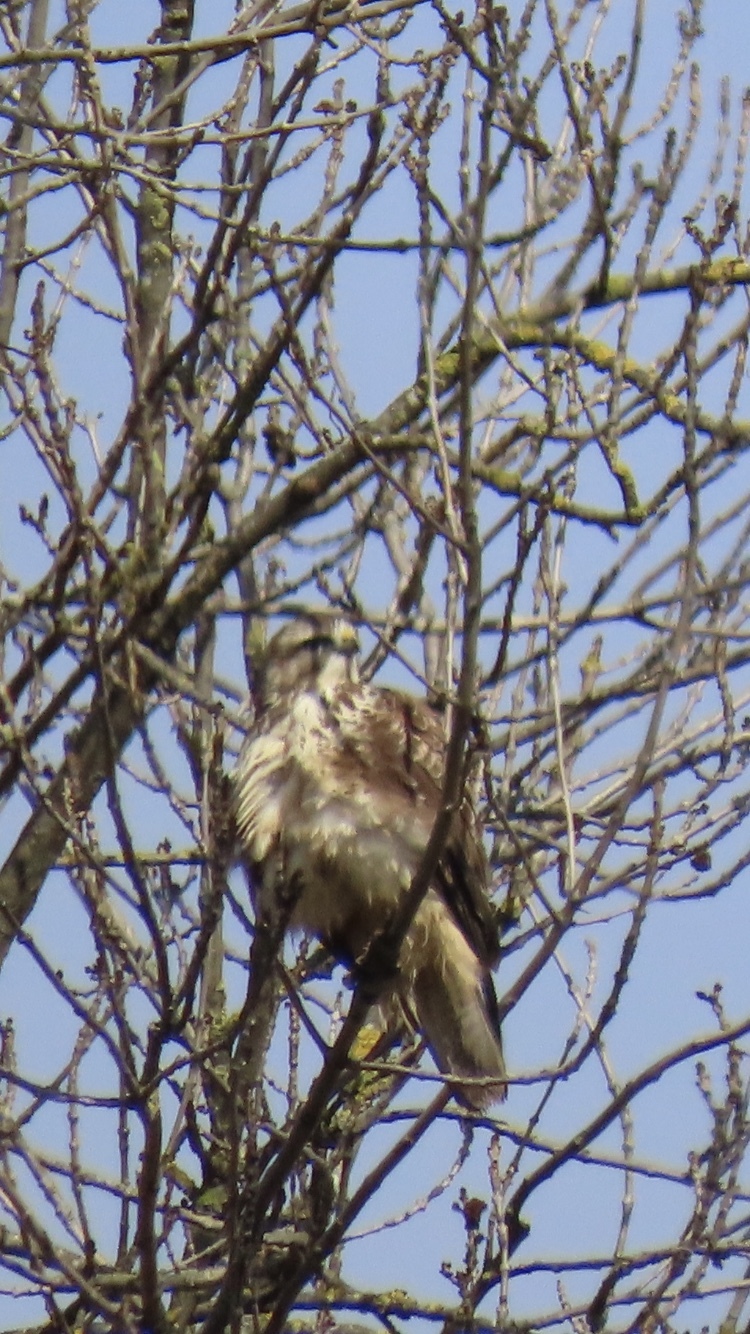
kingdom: Animalia
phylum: Chordata
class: Aves
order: Accipitriformes
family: Accipitridae
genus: Buteo
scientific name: Buteo buteo
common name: Common buzzard
